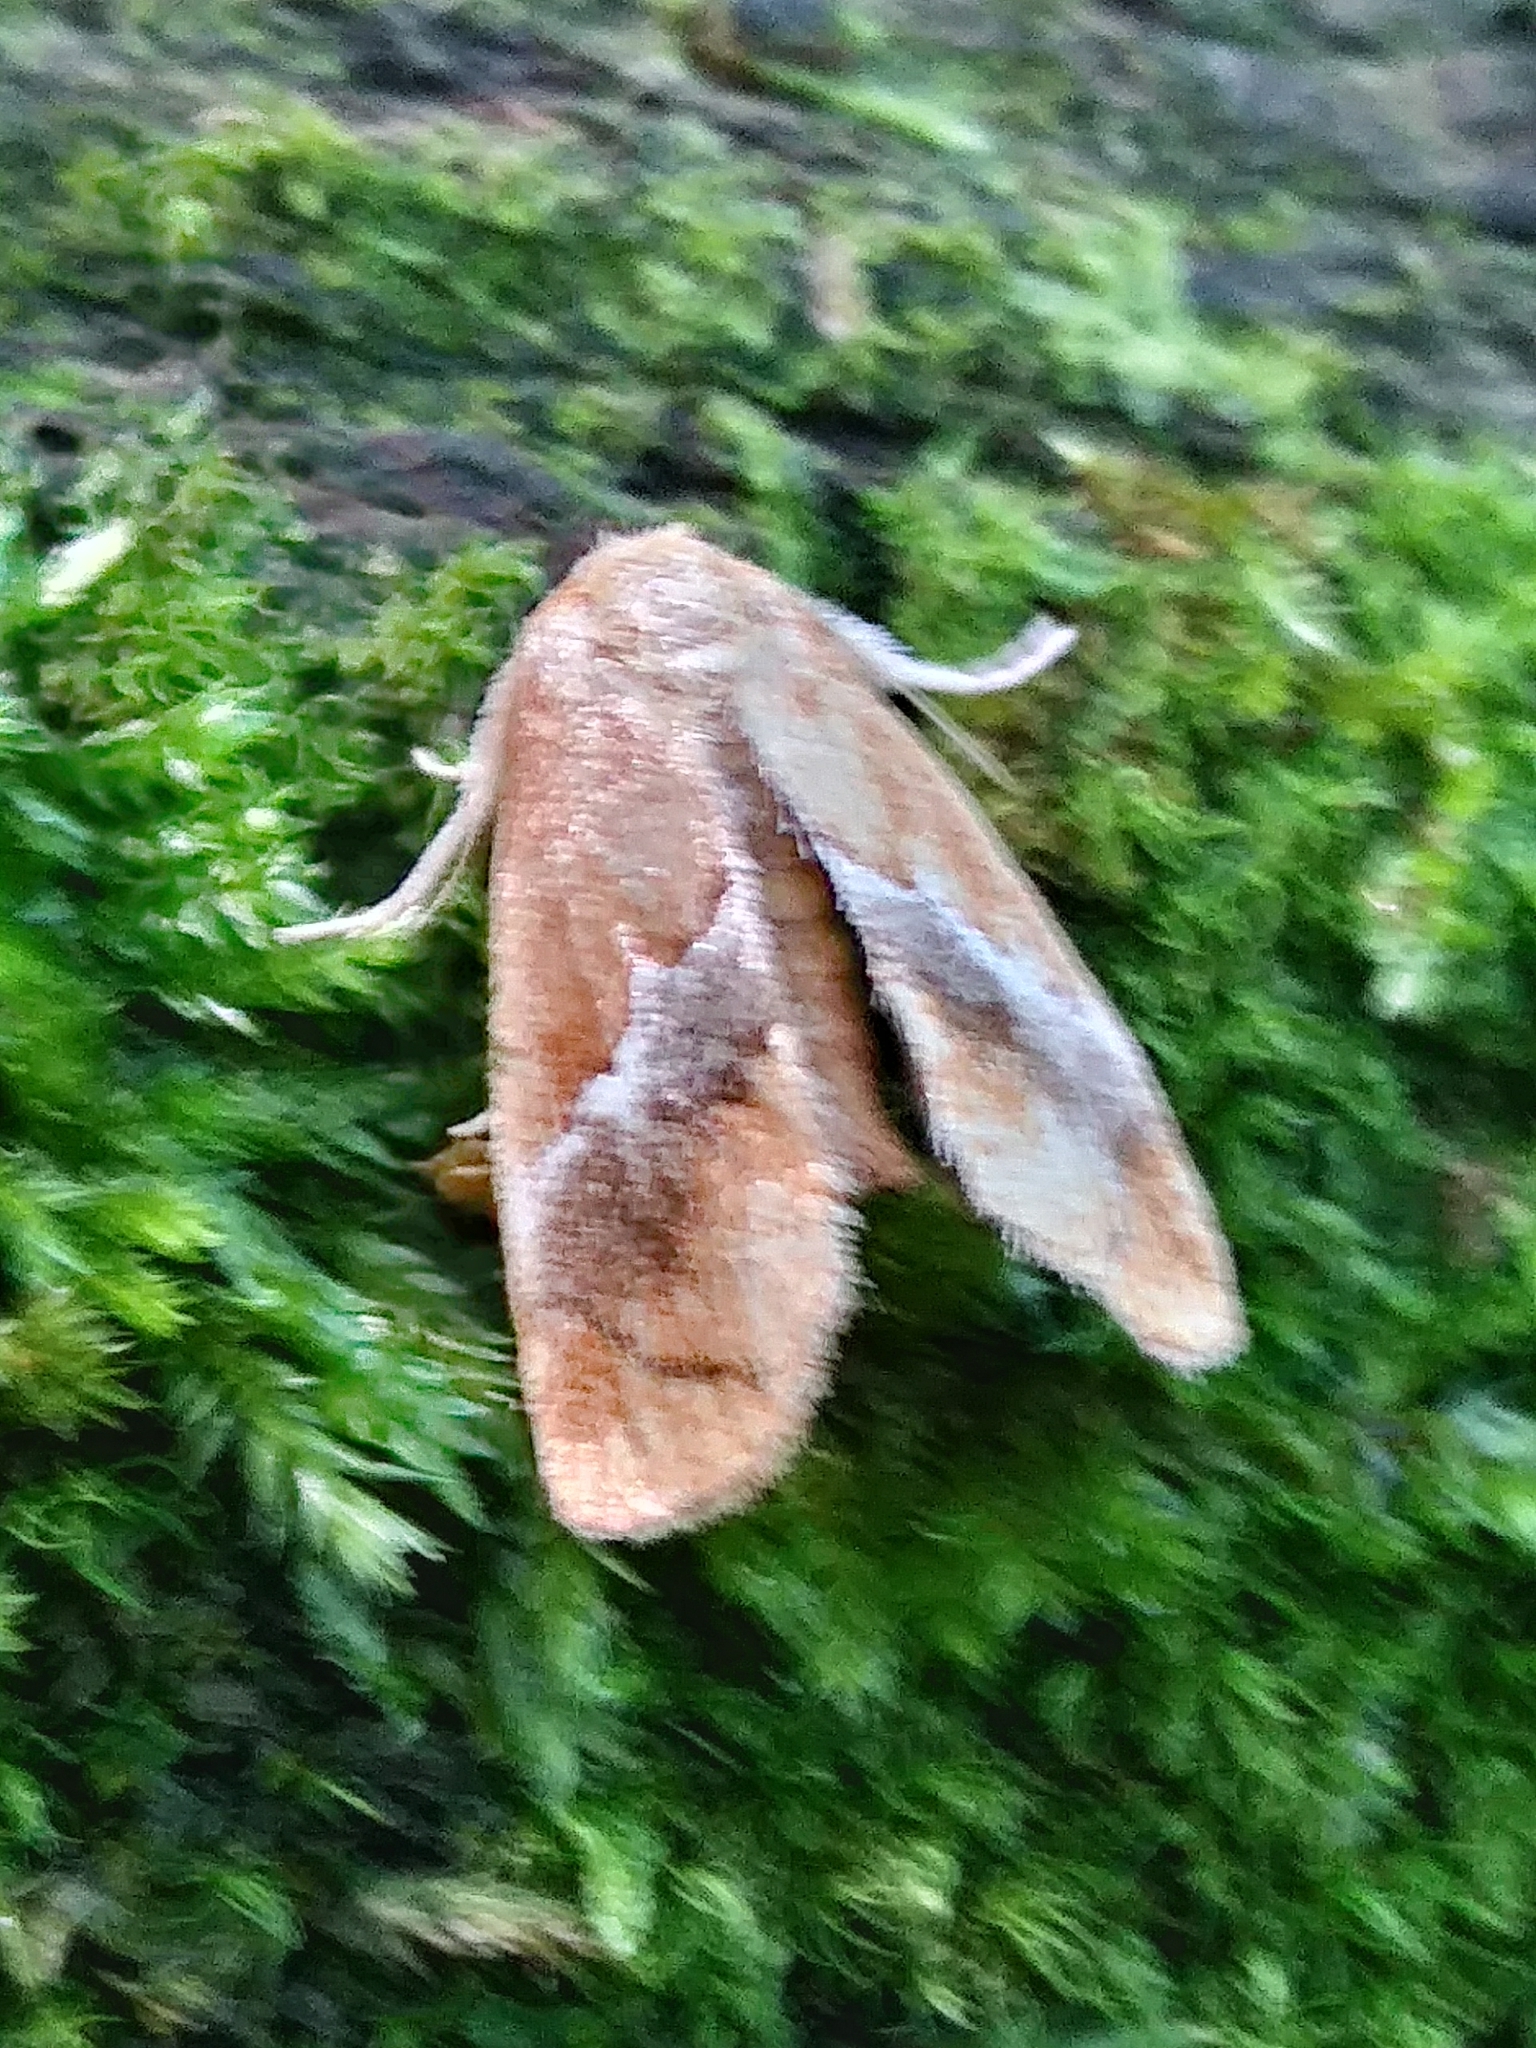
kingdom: Animalia
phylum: Arthropoda
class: Insecta
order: Lepidoptera
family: Limacodidae
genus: Lithacodes
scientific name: Lithacodes fasciola
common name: Yellow-shouldered slug moth
